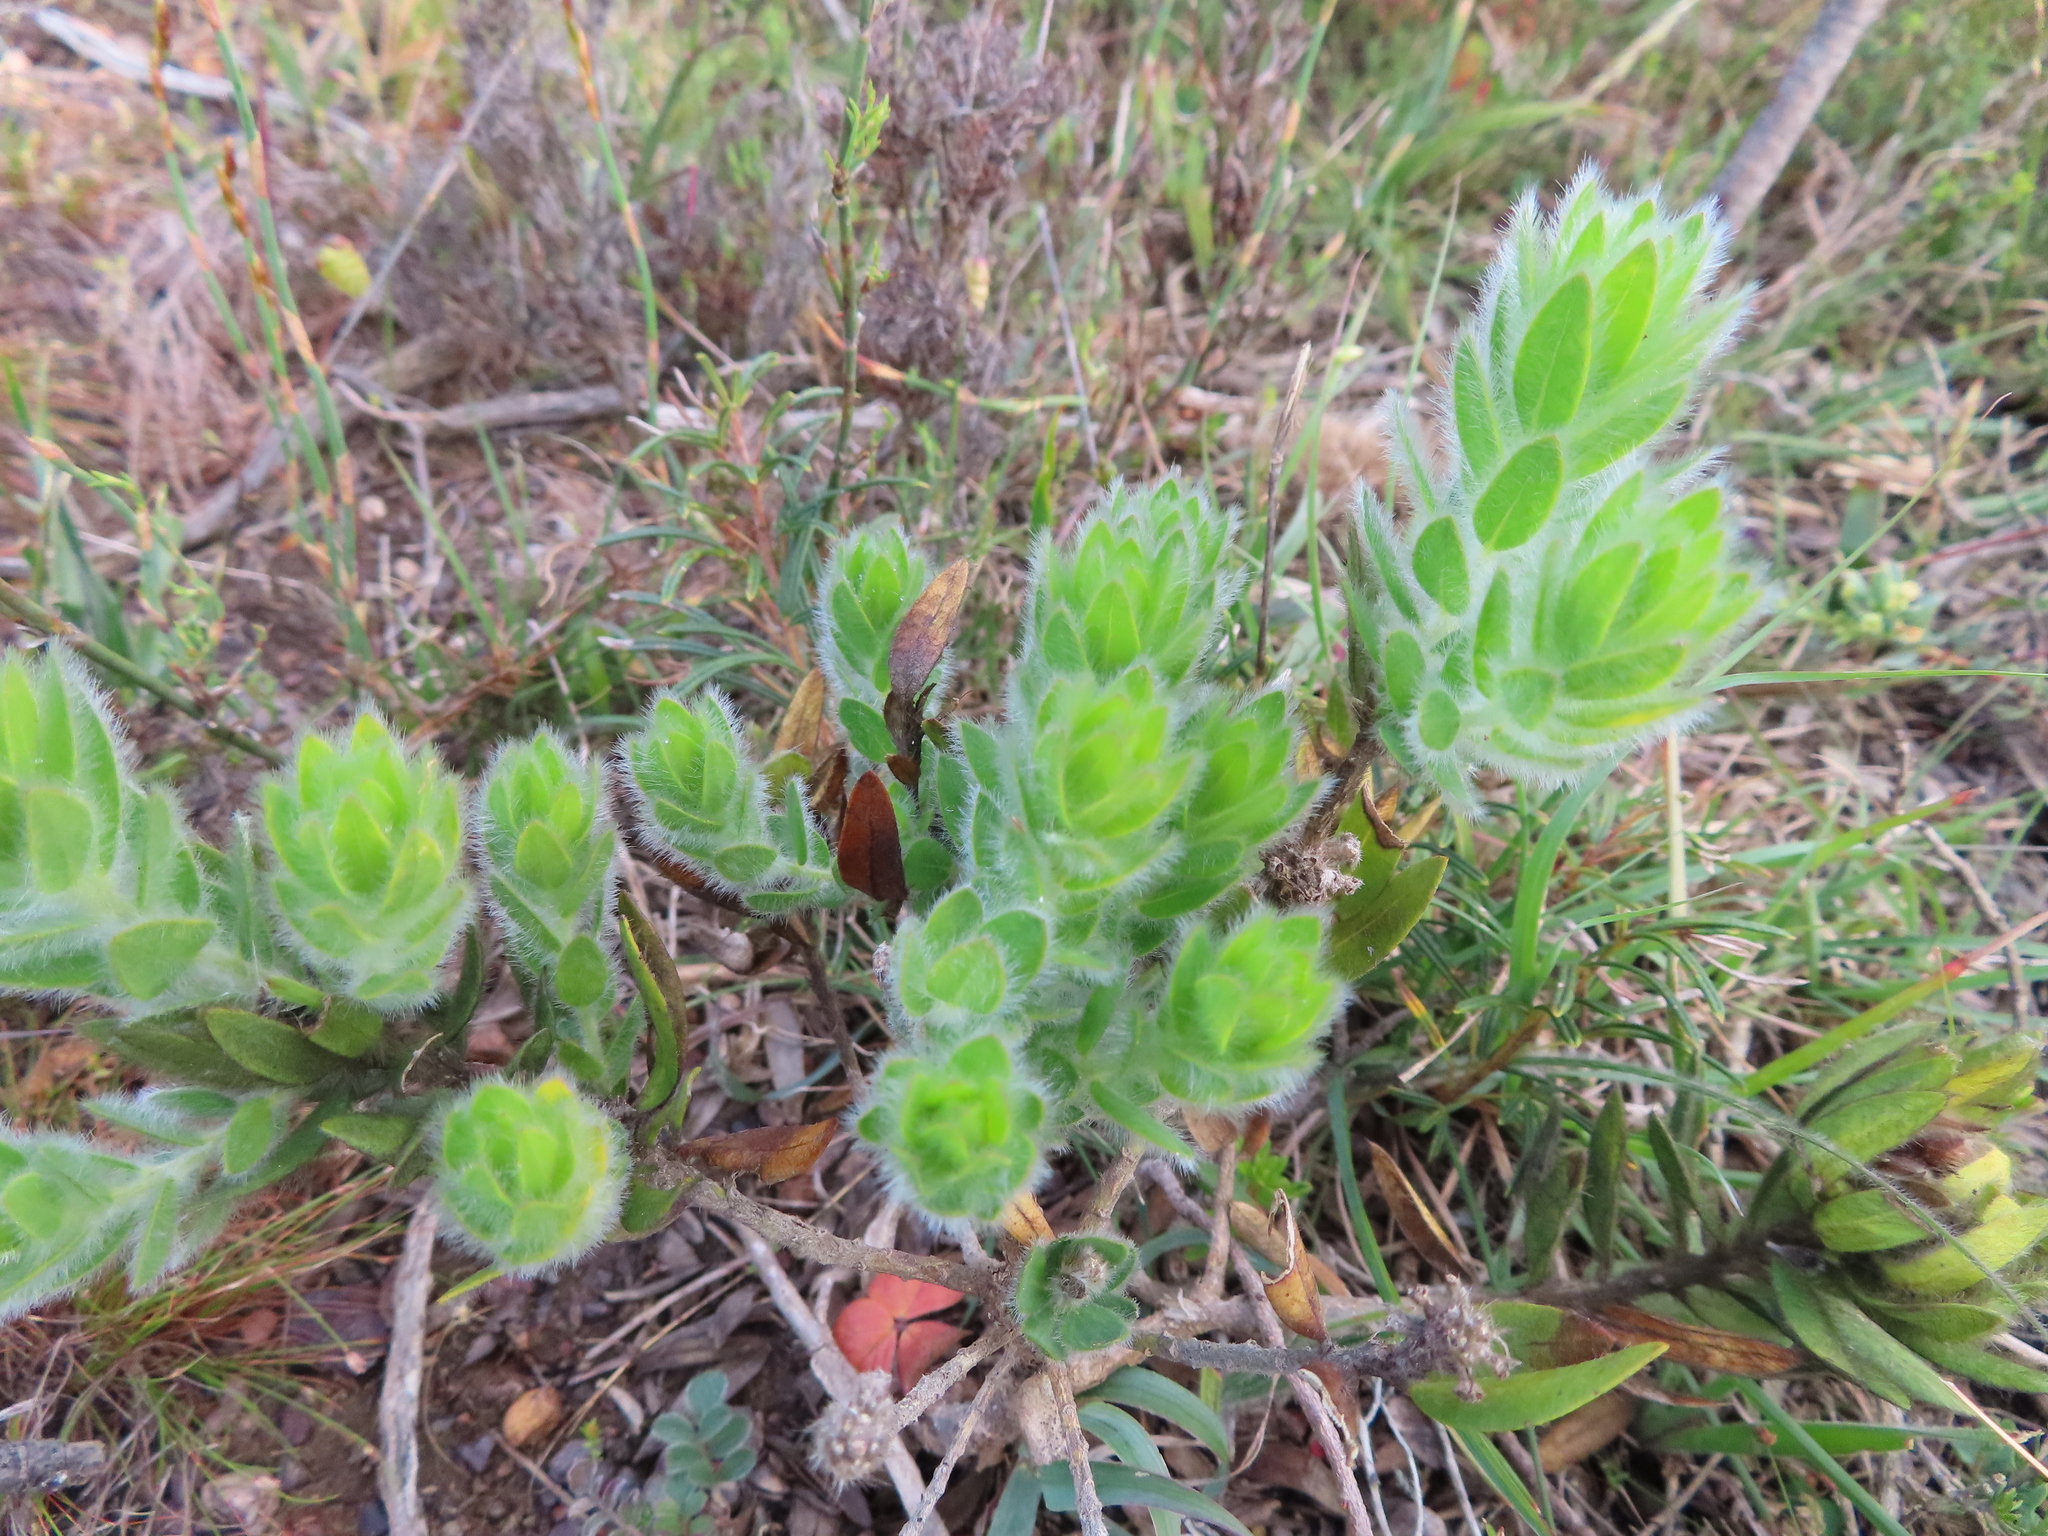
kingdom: Plantae
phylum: Tracheophyta
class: Magnoliopsida
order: Fabales
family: Fabaceae
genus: Xiphotheca
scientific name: Xiphotheca guthriei
